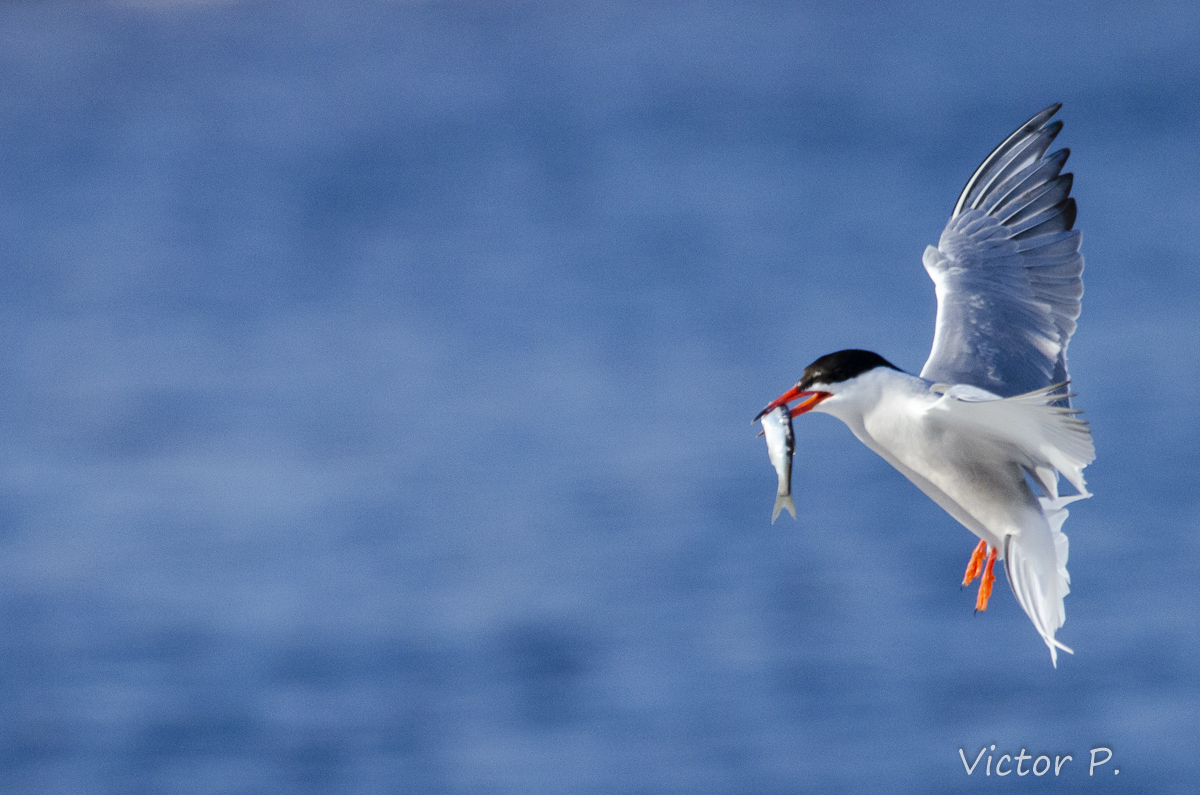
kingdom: Animalia
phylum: Chordata
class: Aves
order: Charadriiformes
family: Laridae
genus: Sterna
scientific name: Sterna hirundo
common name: Common tern
